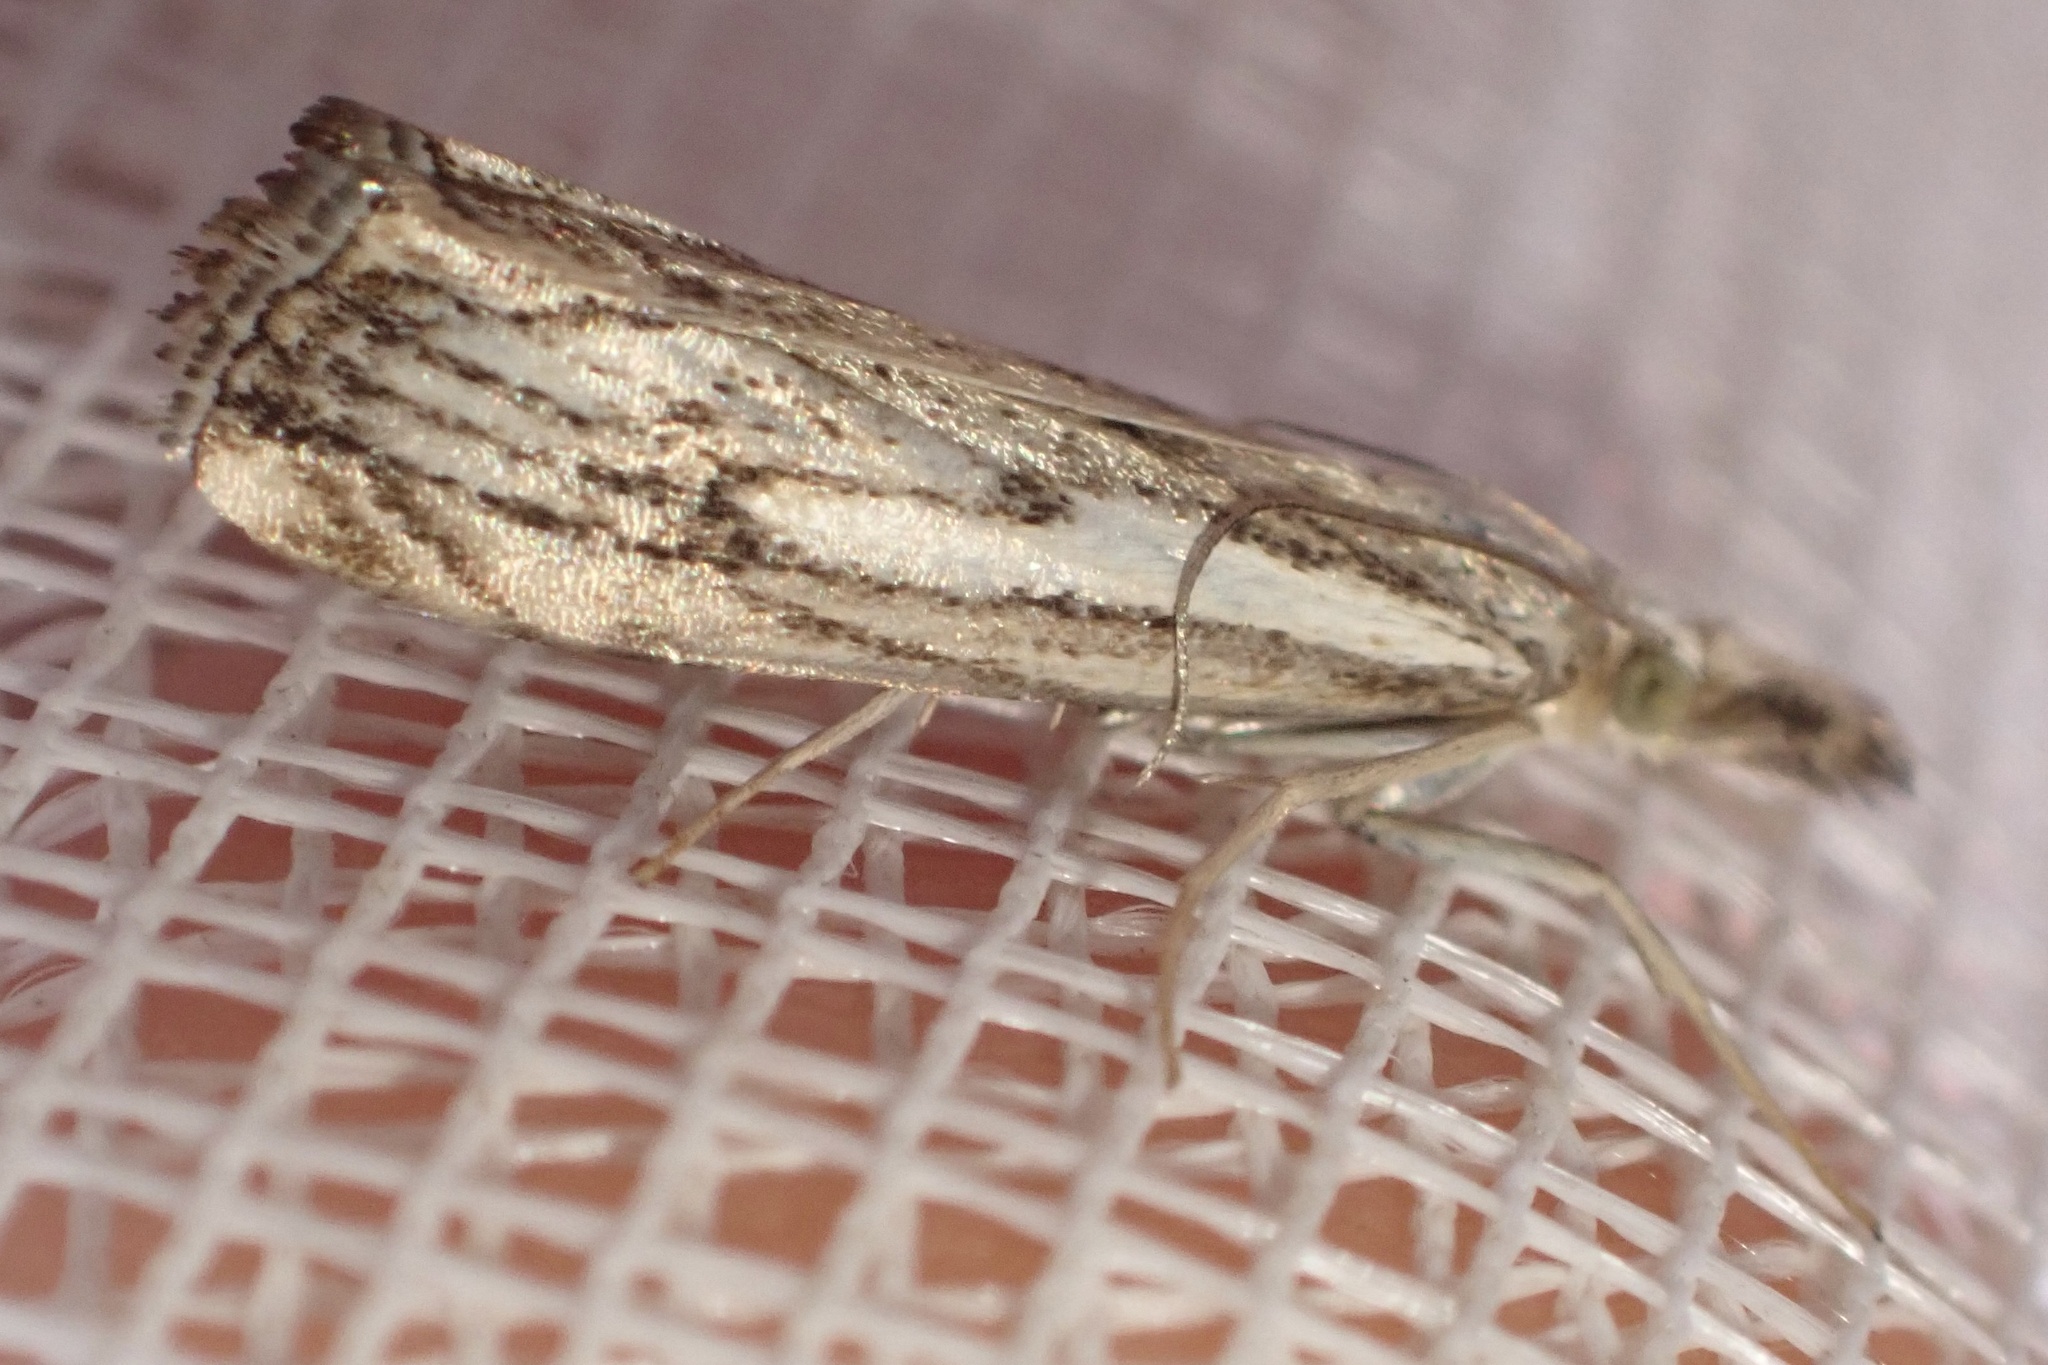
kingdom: Animalia
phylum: Arthropoda
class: Insecta
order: Lepidoptera
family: Crambidae
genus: Catoptria
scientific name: Catoptria falsella
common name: Chequered grass-veneer
